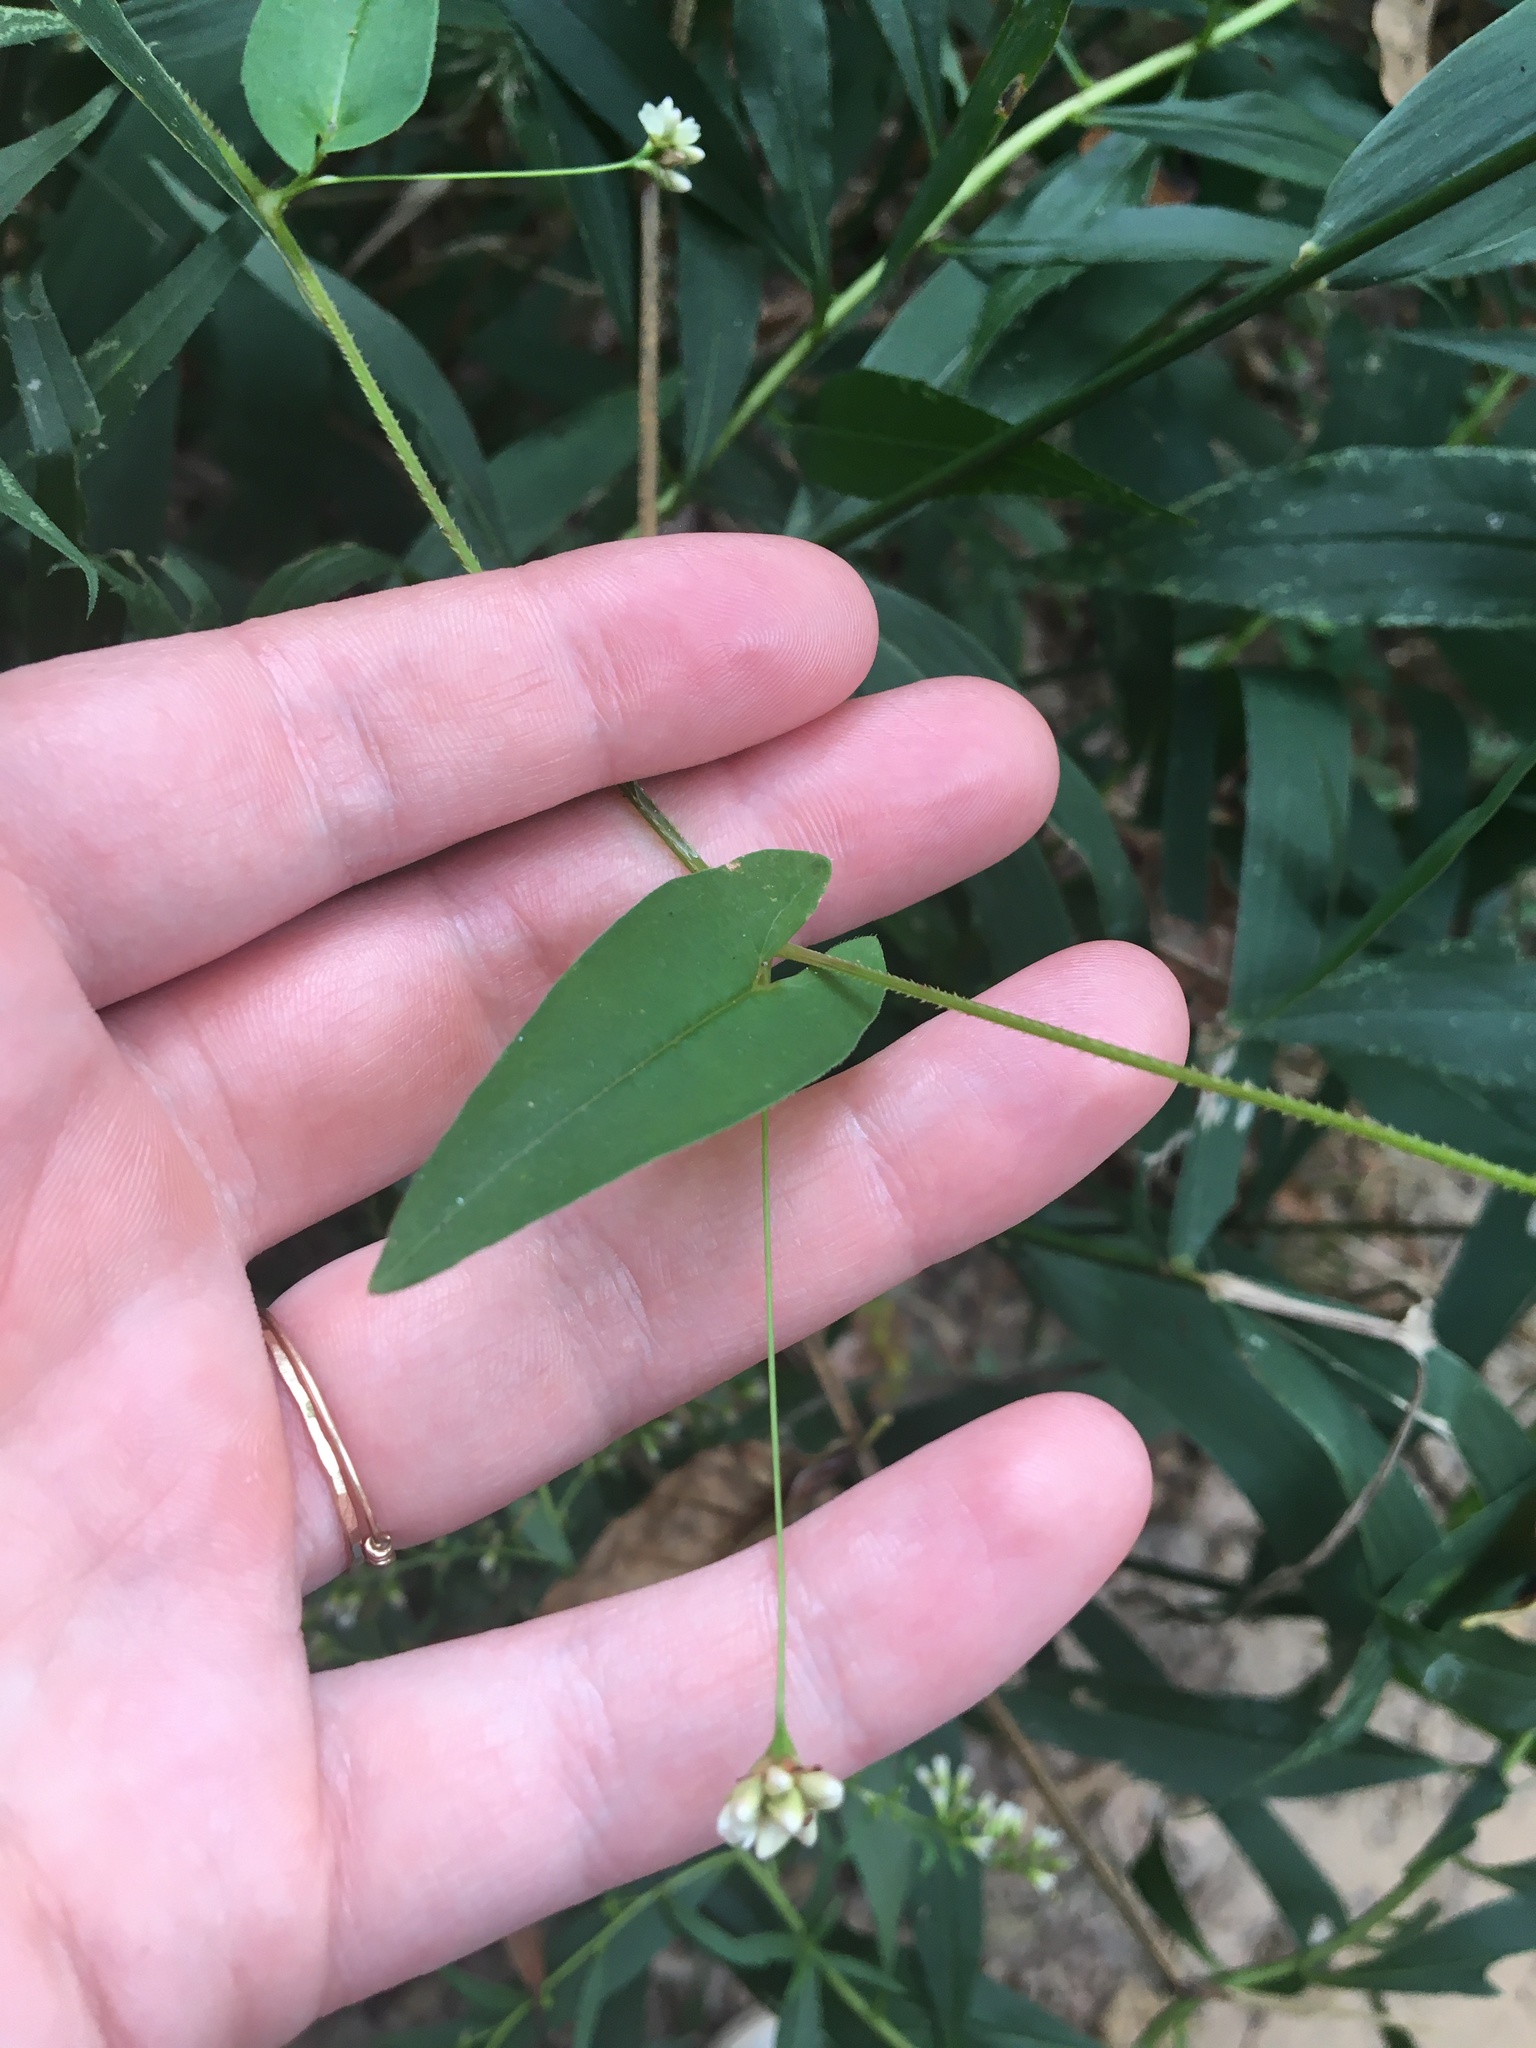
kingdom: Plantae
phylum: Tracheophyta
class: Magnoliopsida
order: Caryophyllales
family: Polygonaceae
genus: Persicaria
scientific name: Persicaria sagittata
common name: American tearthumb
